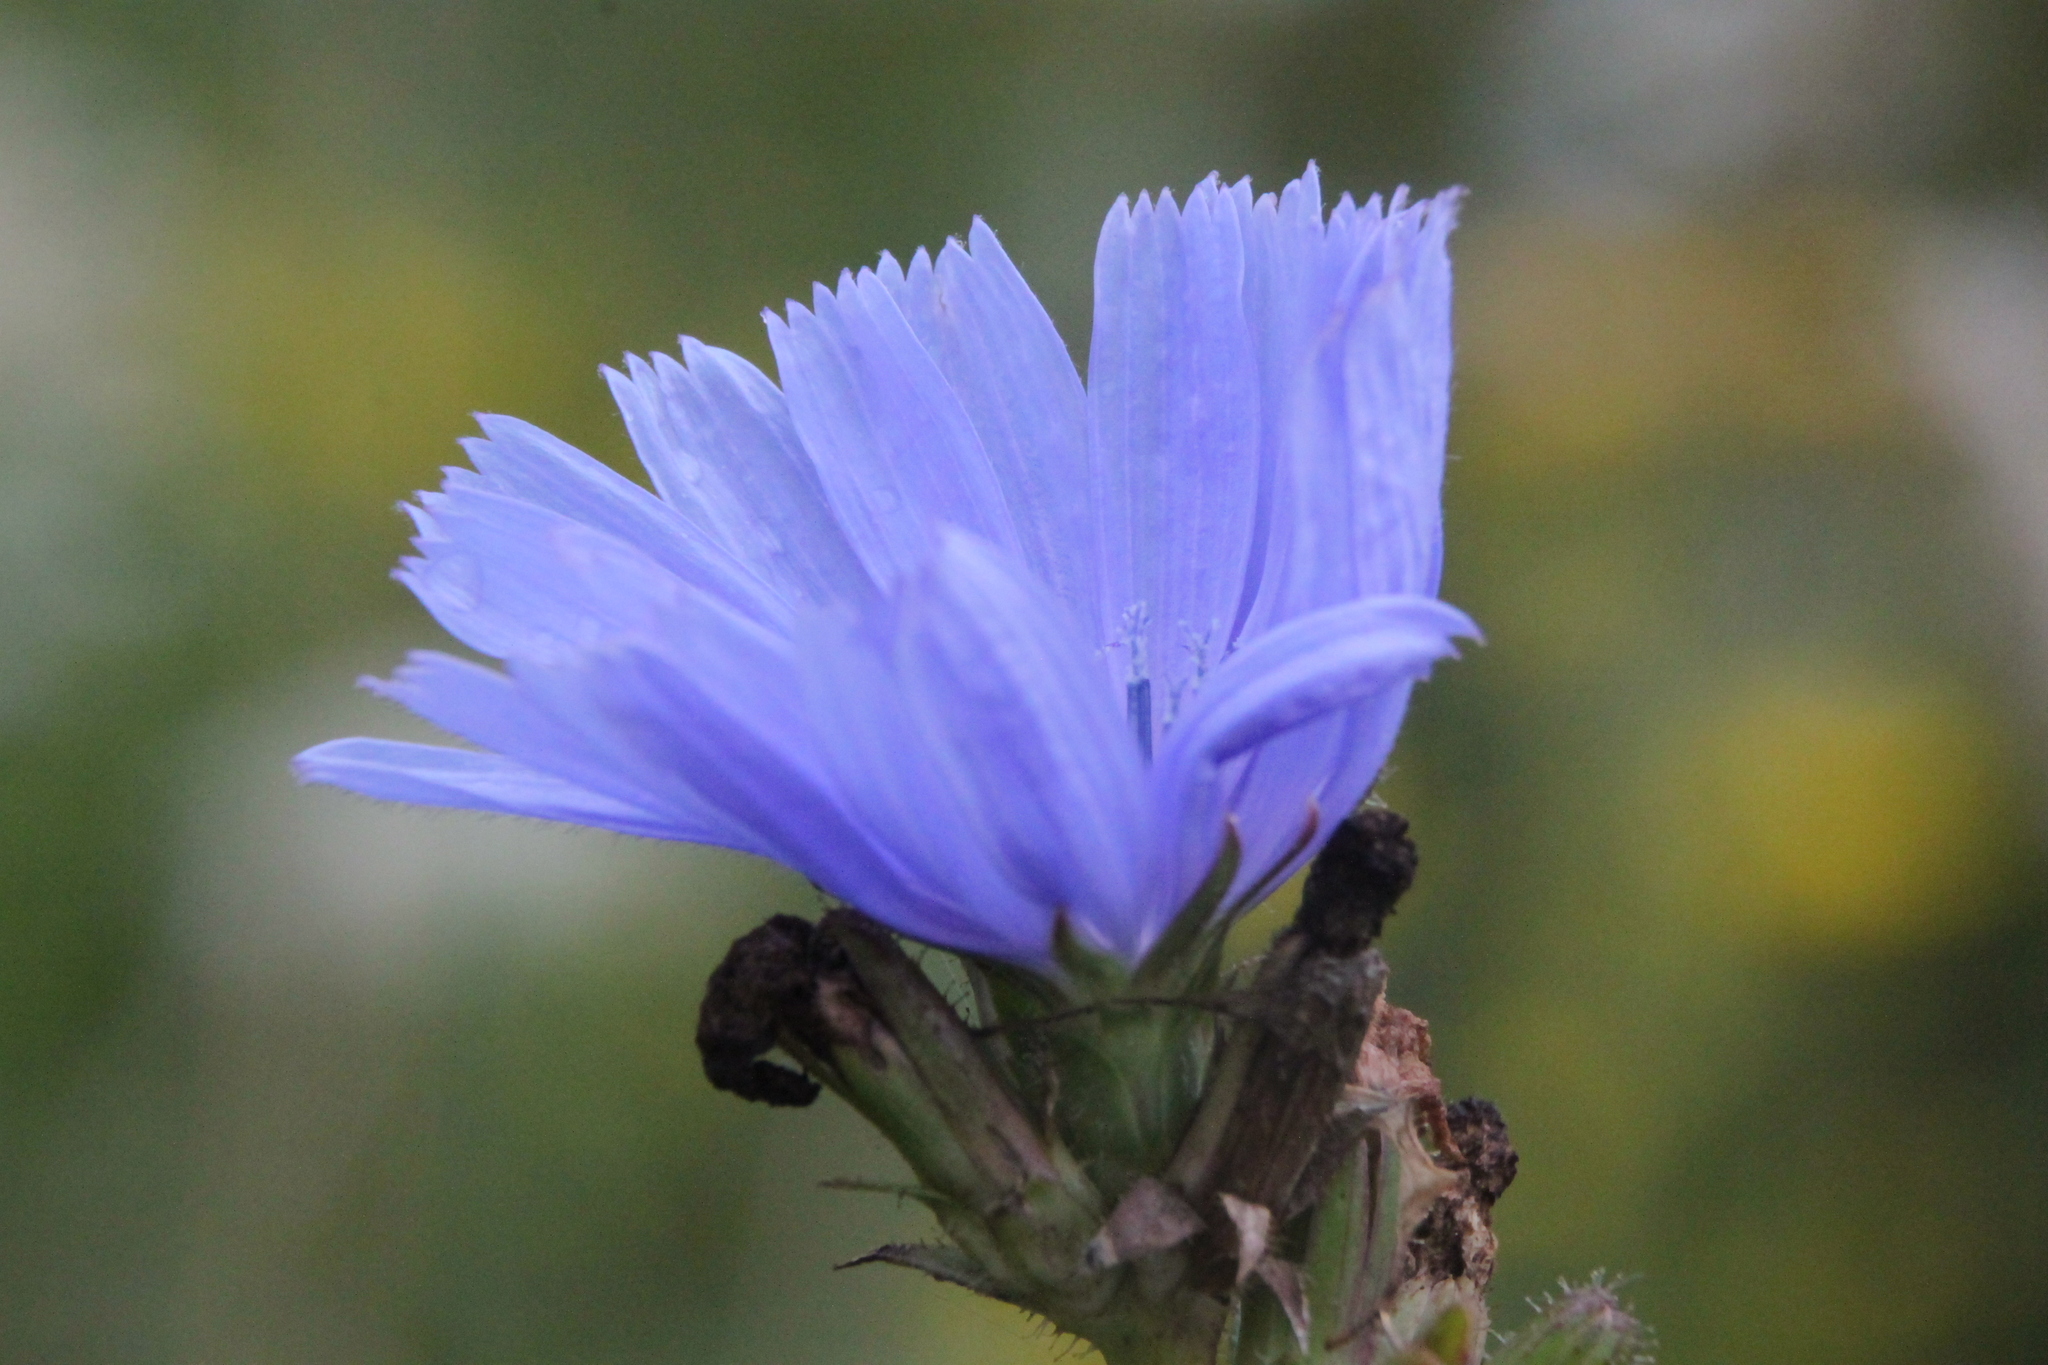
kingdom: Plantae
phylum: Tracheophyta
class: Magnoliopsida
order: Asterales
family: Asteraceae
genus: Cichorium
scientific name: Cichorium intybus
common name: Chicory
